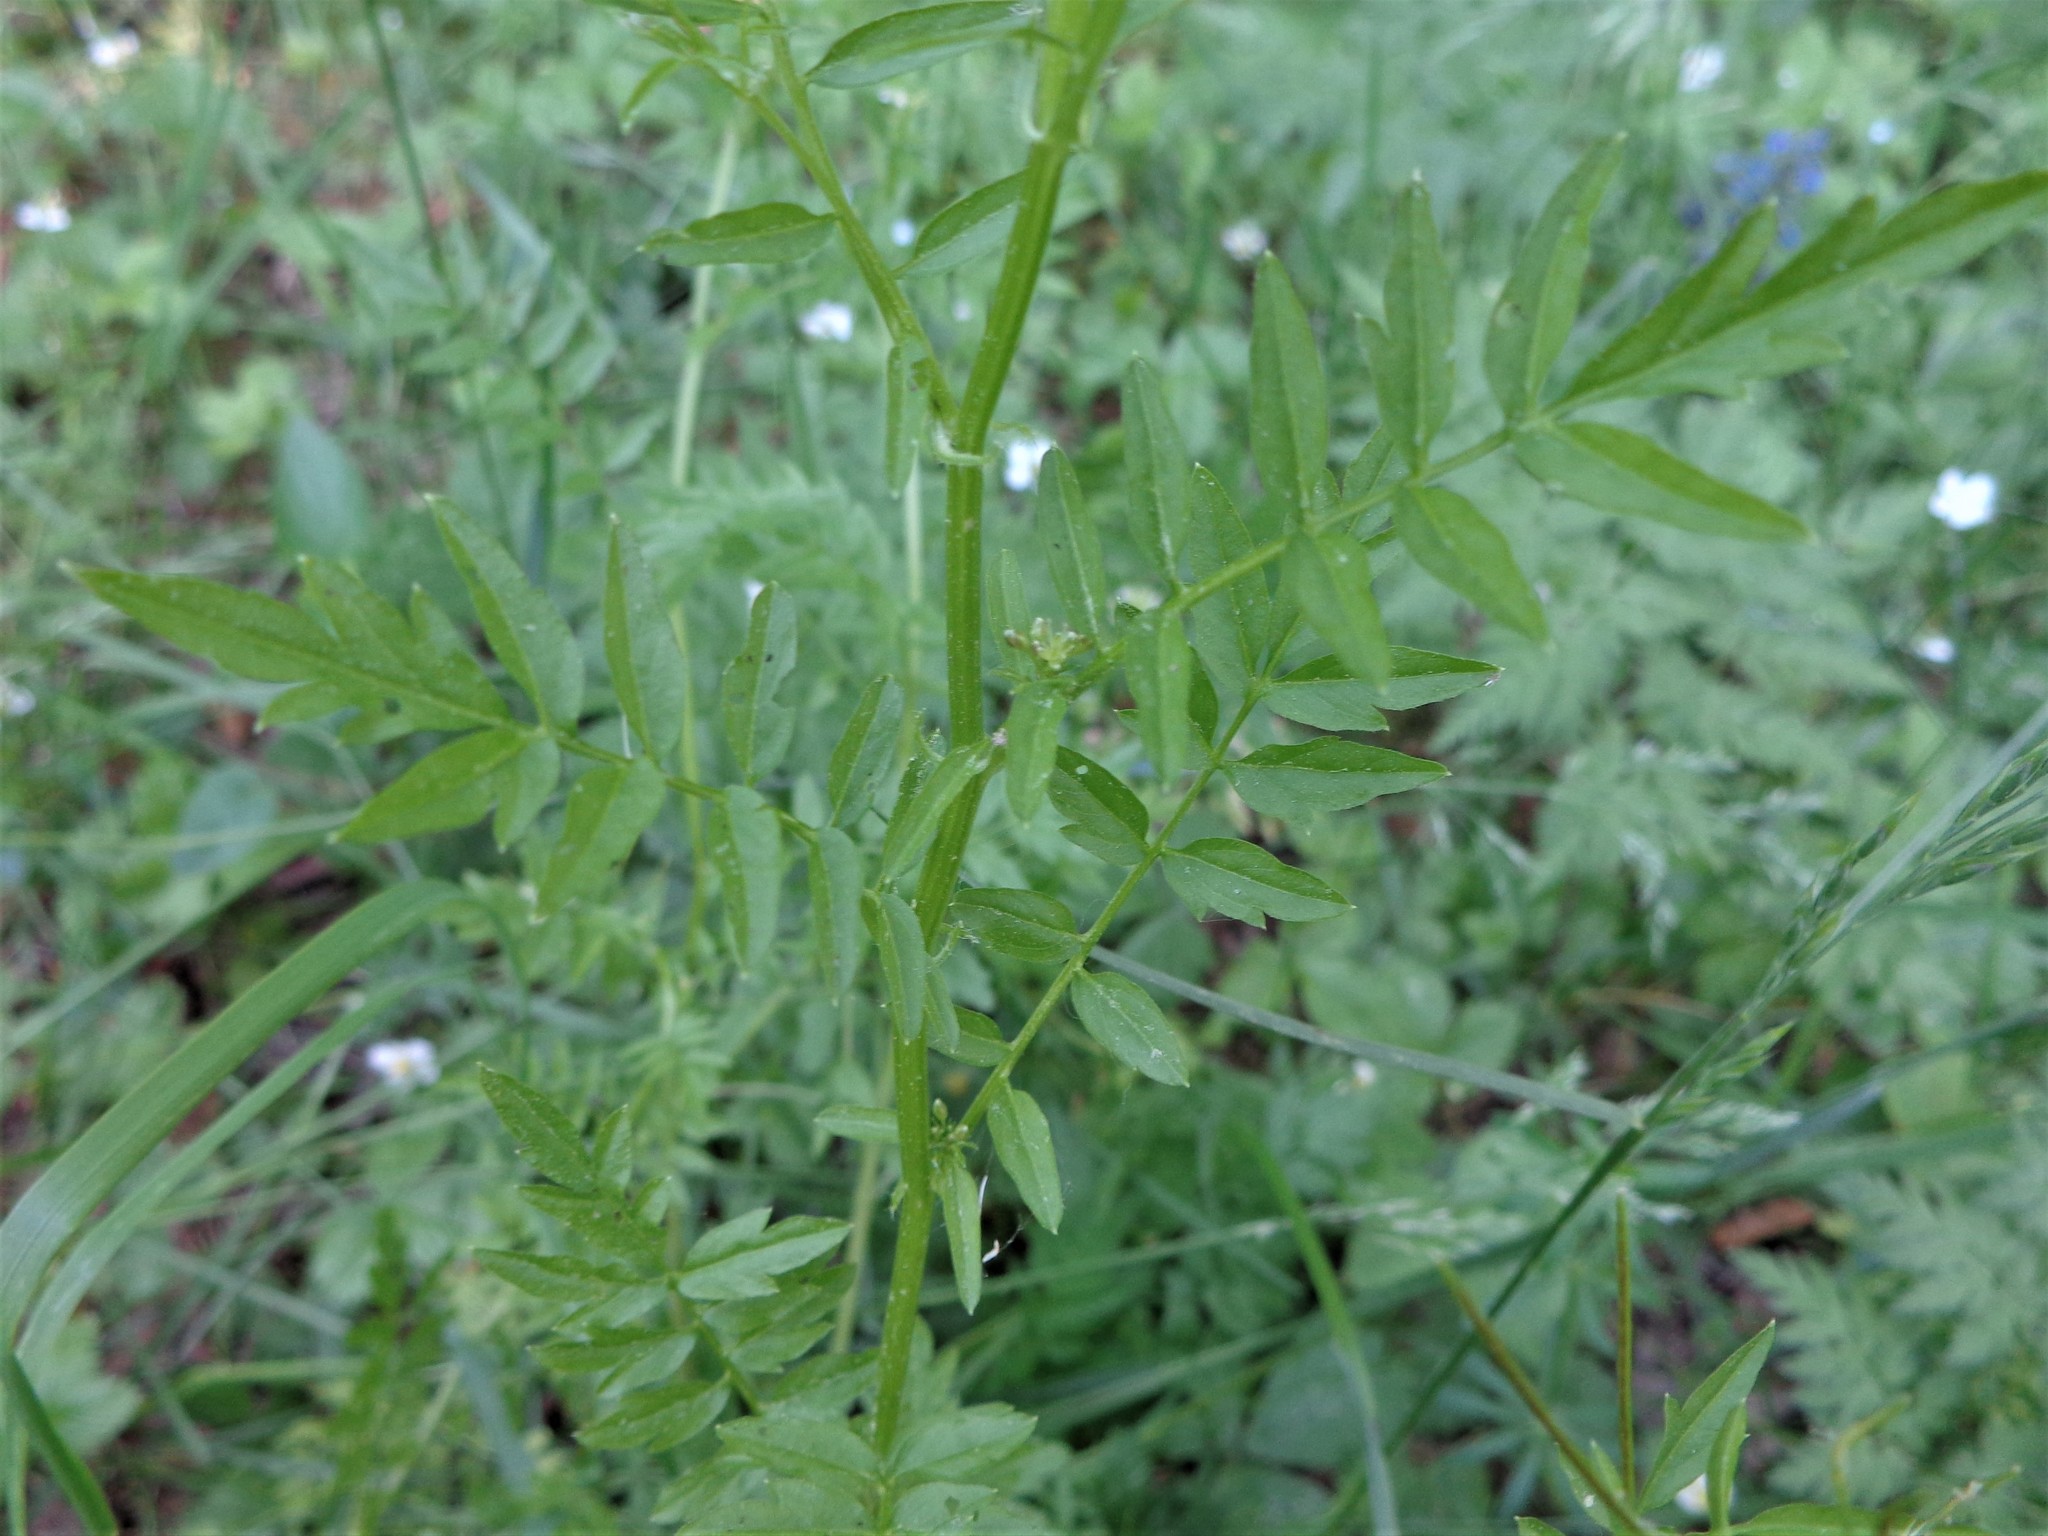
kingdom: Plantae
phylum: Tracheophyta
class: Magnoliopsida
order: Brassicales
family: Brassicaceae
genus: Cardamine
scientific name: Cardamine impatiens
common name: Narrow-leaved bitter-cress
